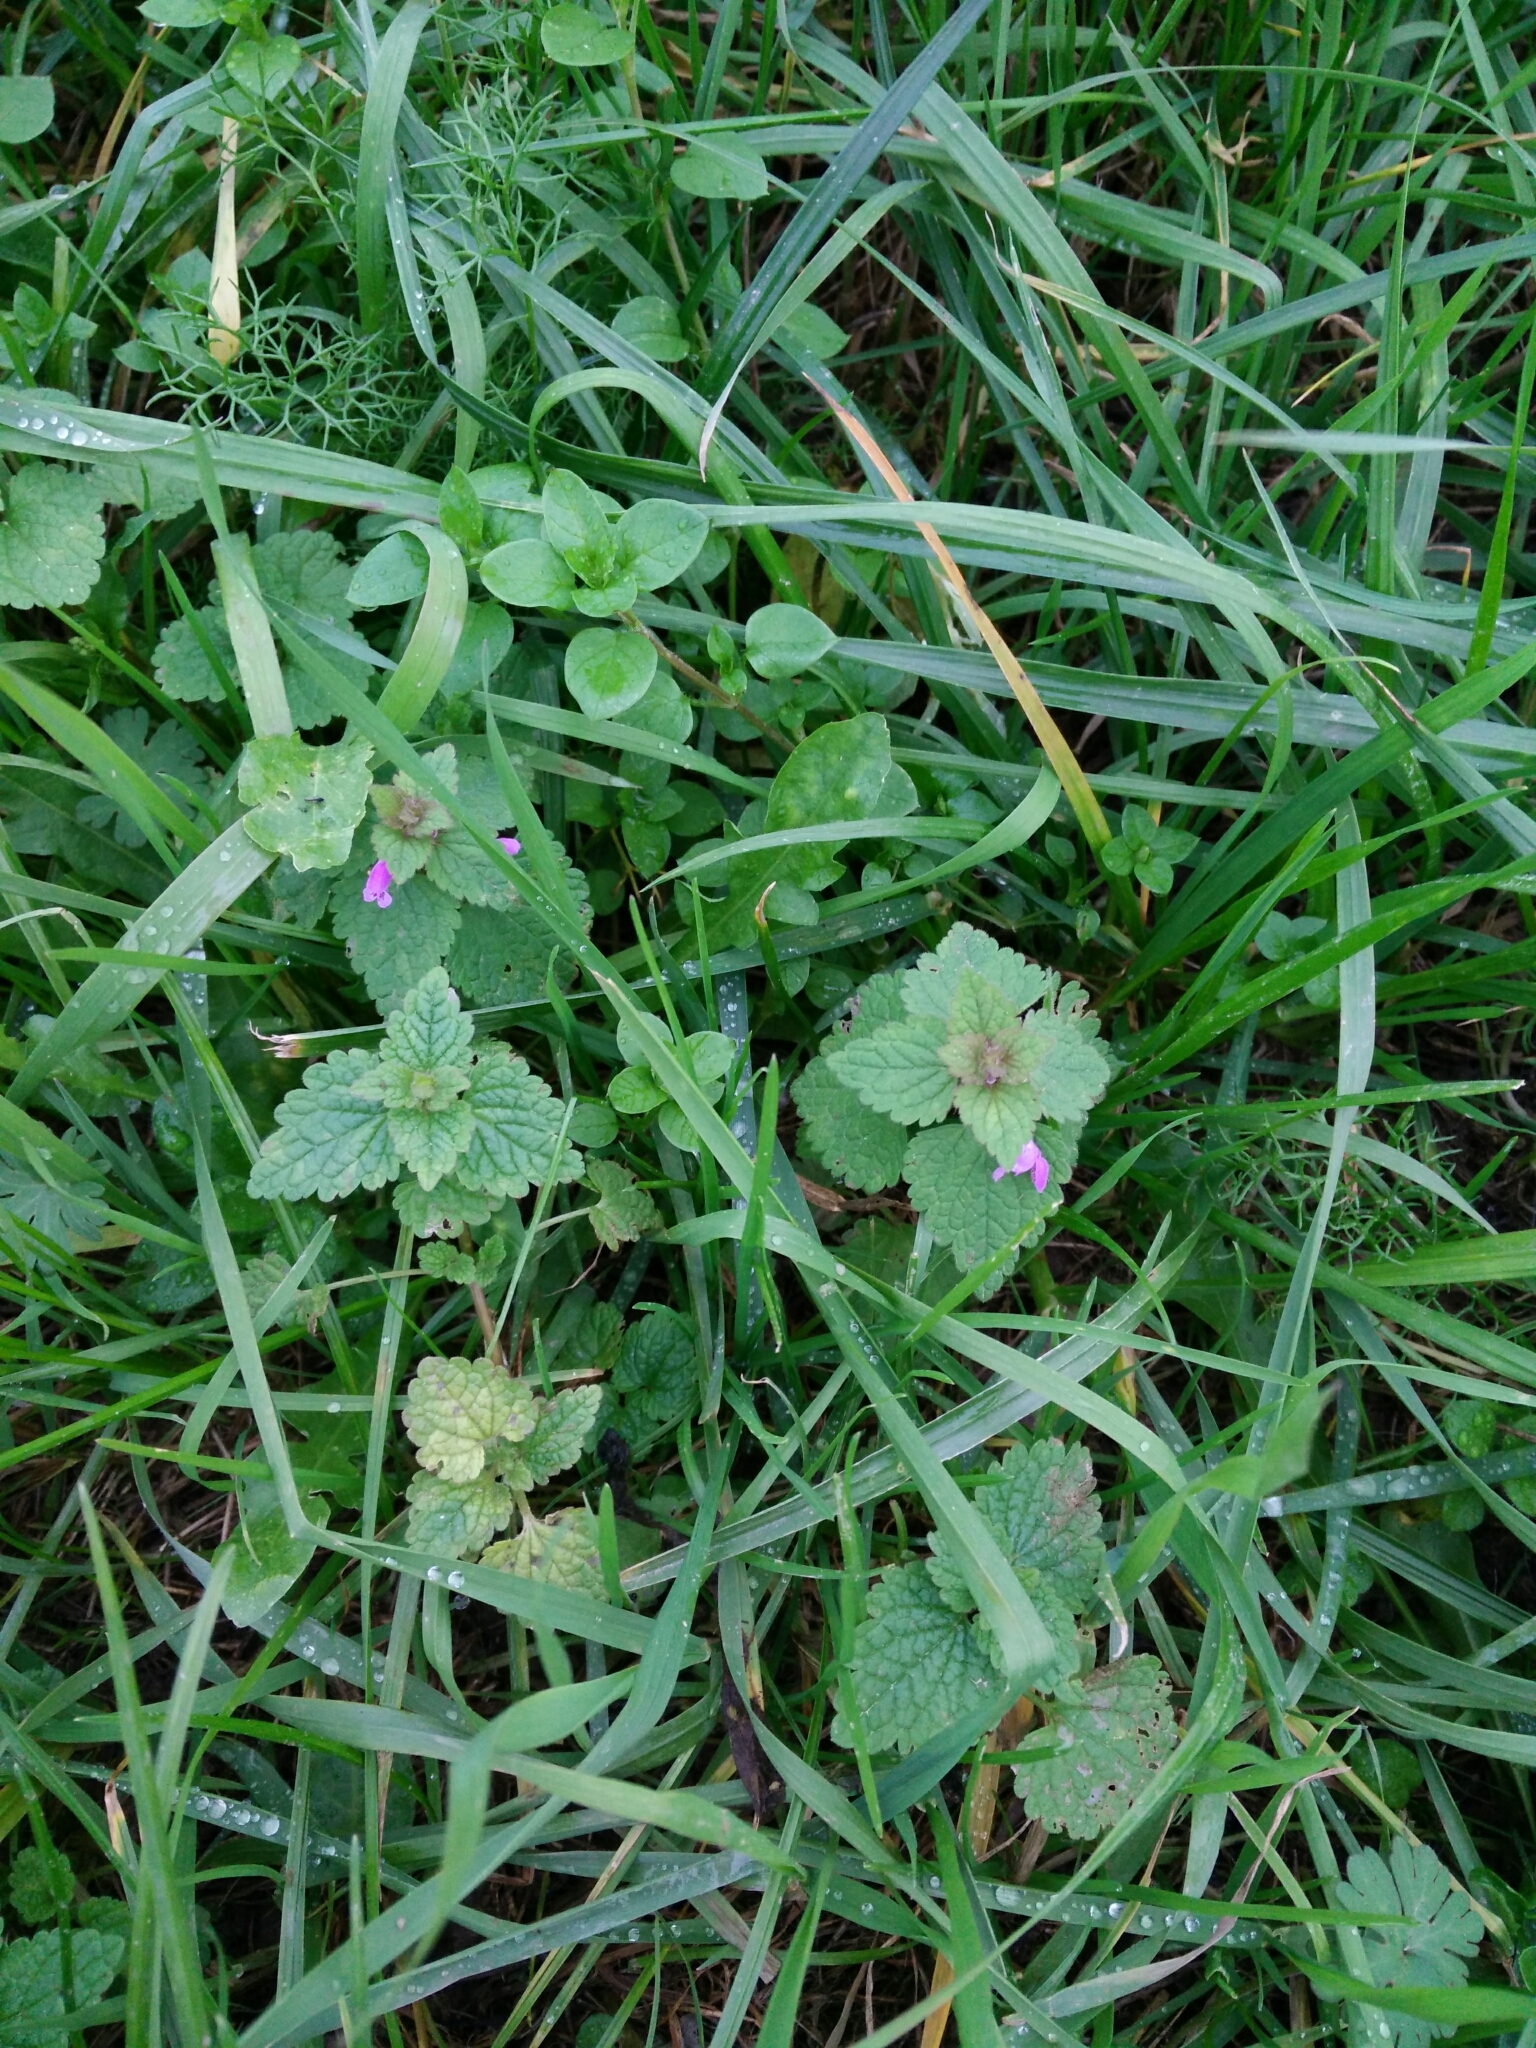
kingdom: Plantae
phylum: Tracheophyta
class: Magnoliopsida
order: Lamiales
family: Lamiaceae
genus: Lamium
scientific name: Lamium purpureum
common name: Red dead-nettle
